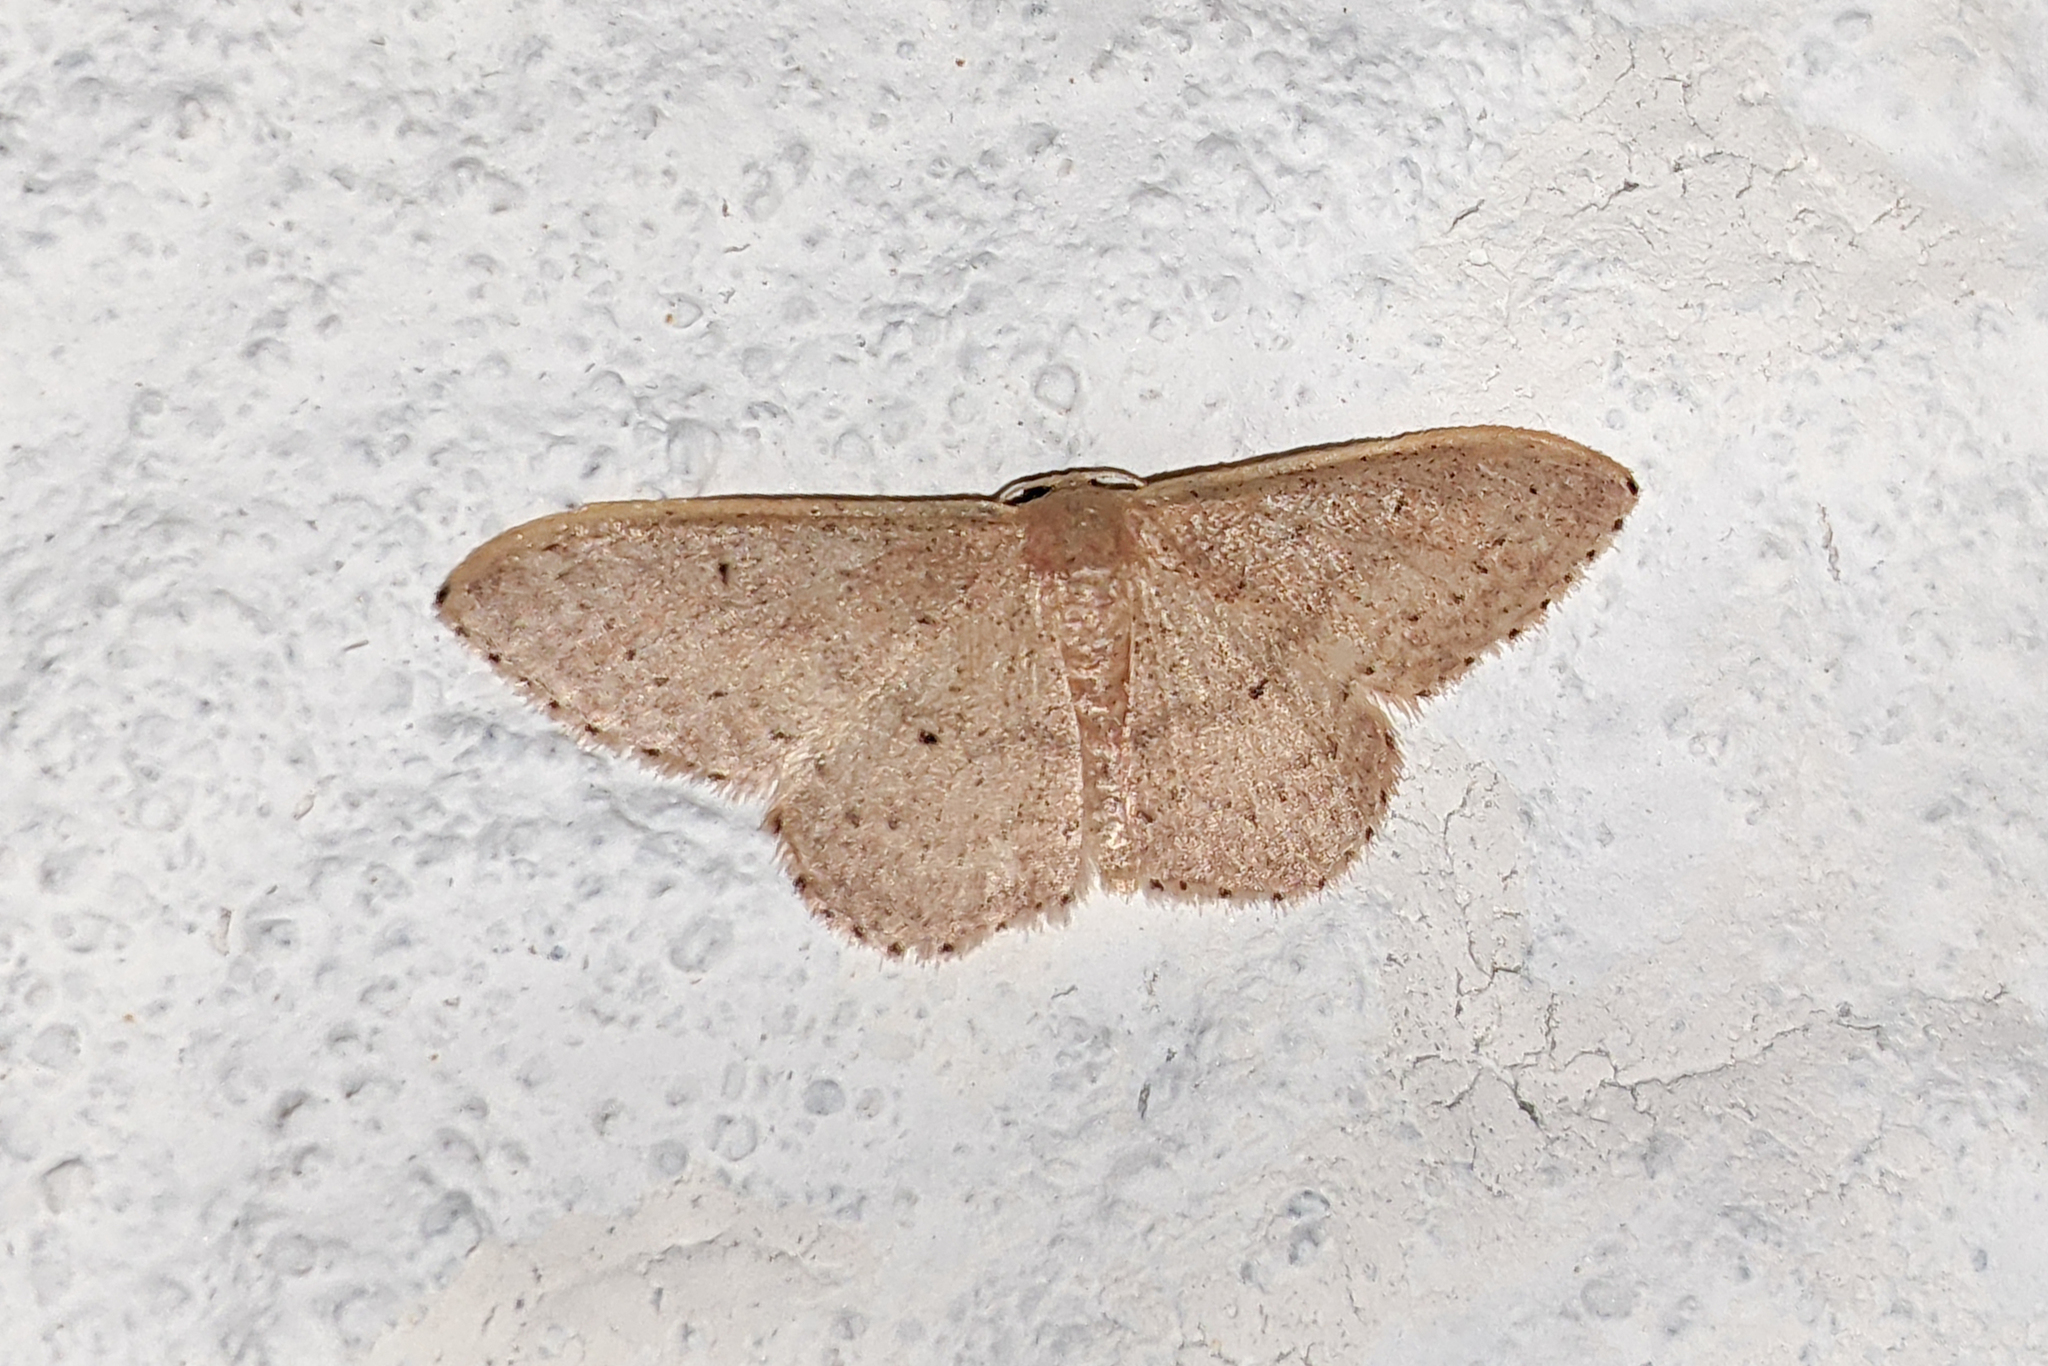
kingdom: Animalia
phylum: Arthropoda
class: Insecta
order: Lepidoptera
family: Geometridae
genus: Idaea
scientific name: Idaea eugeniata
